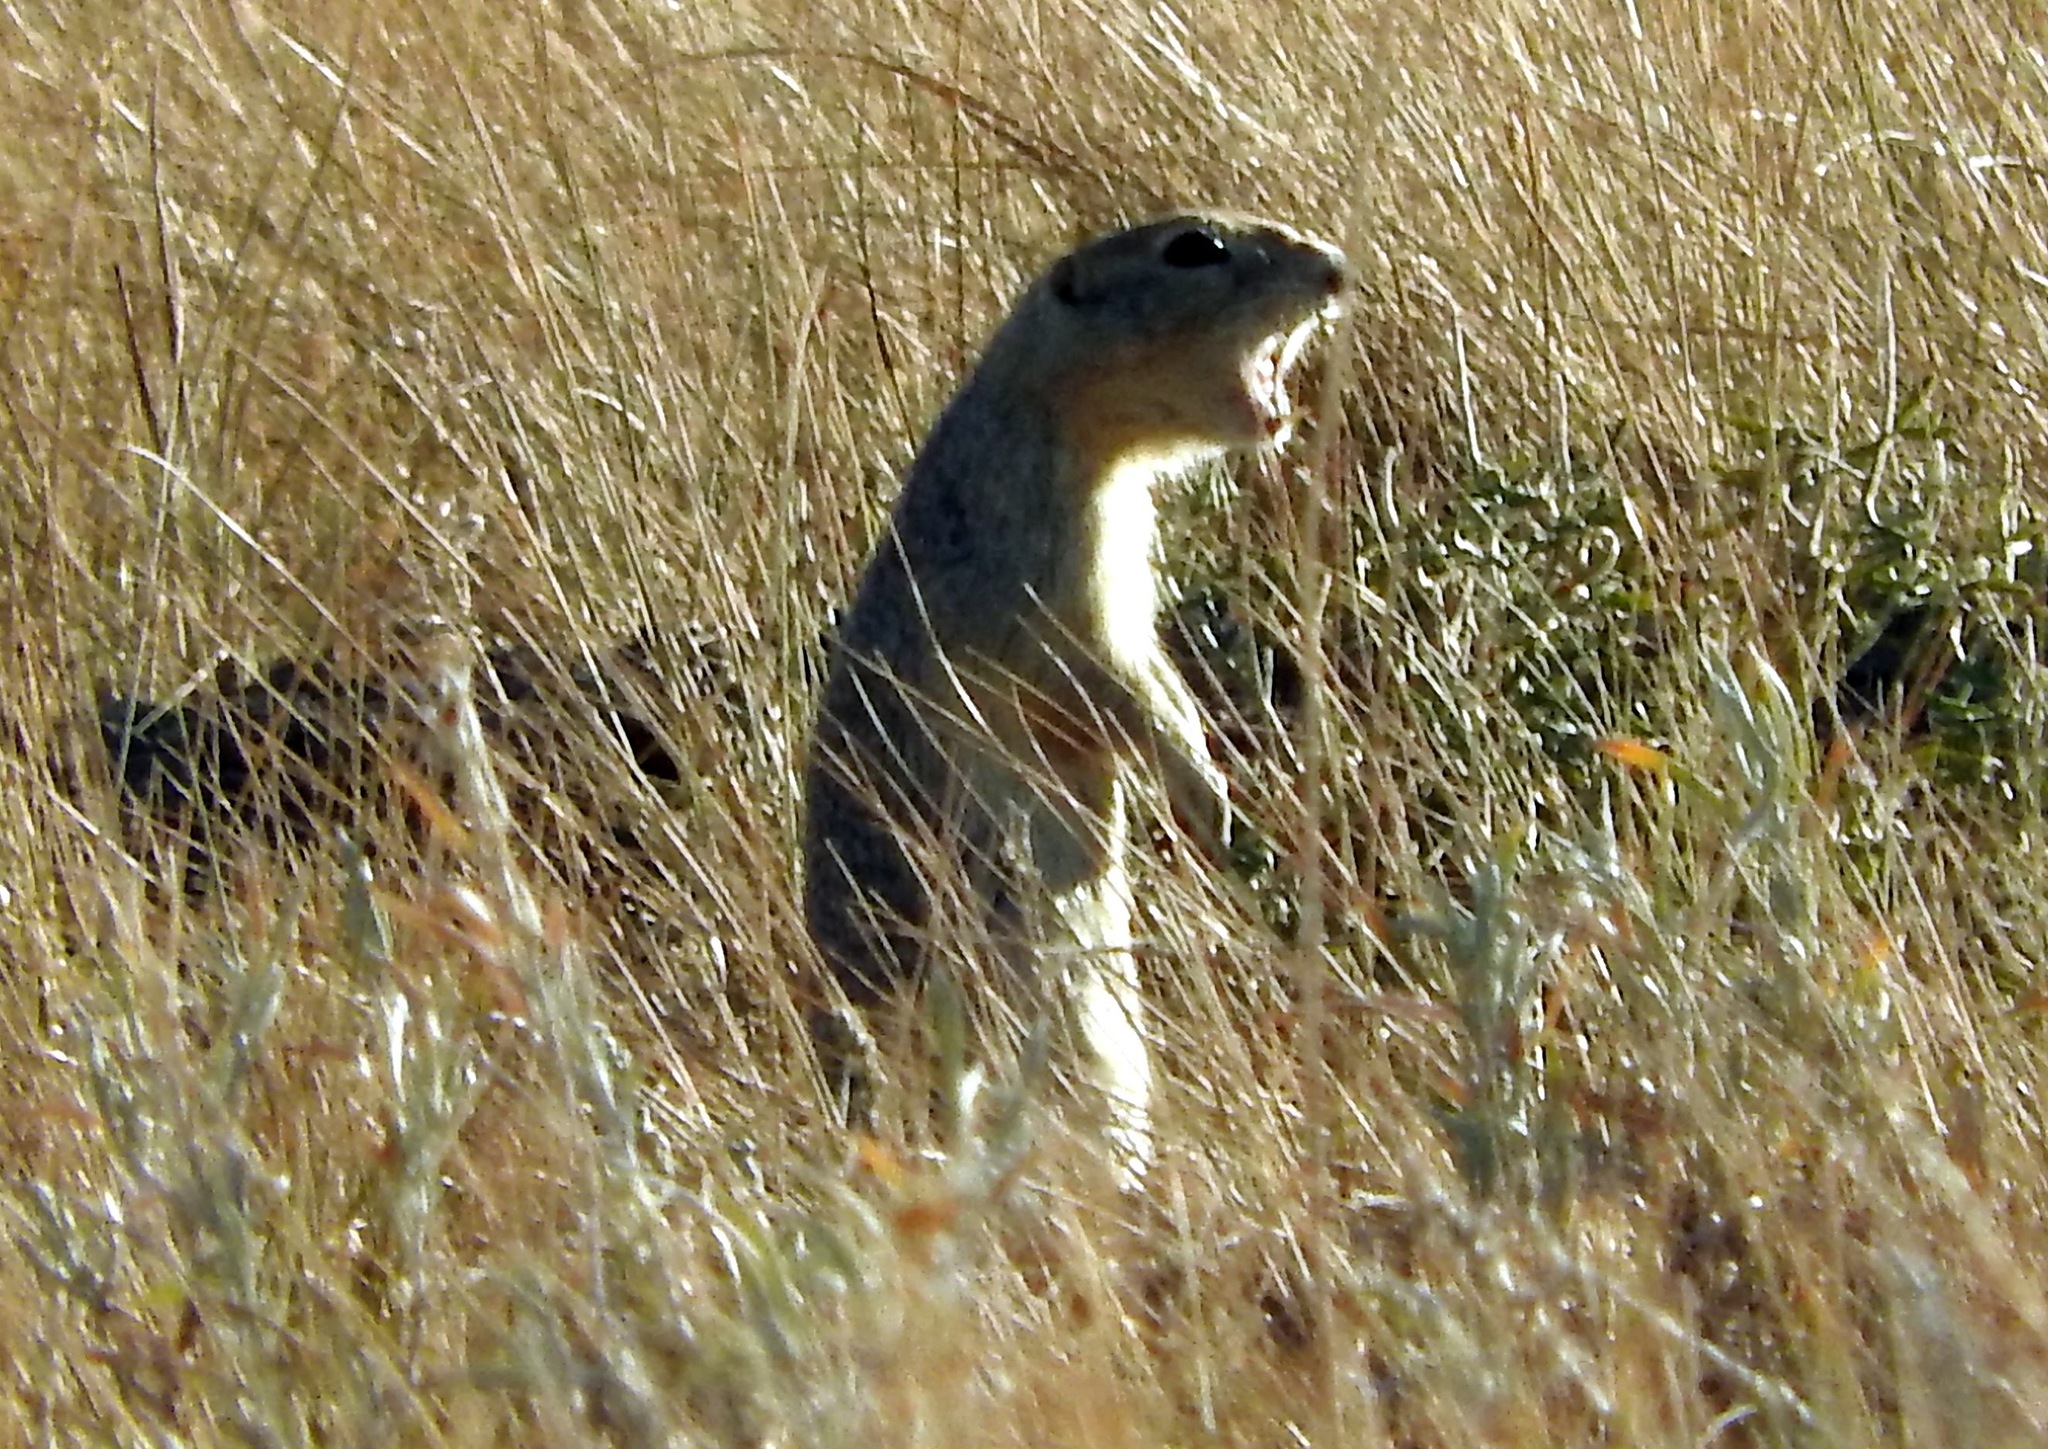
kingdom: Animalia
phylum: Chordata
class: Mammalia
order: Rodentia
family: Sciuridae
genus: Urocitellus
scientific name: Urocitellus richardsonii
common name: Richardson's ground squirrel
